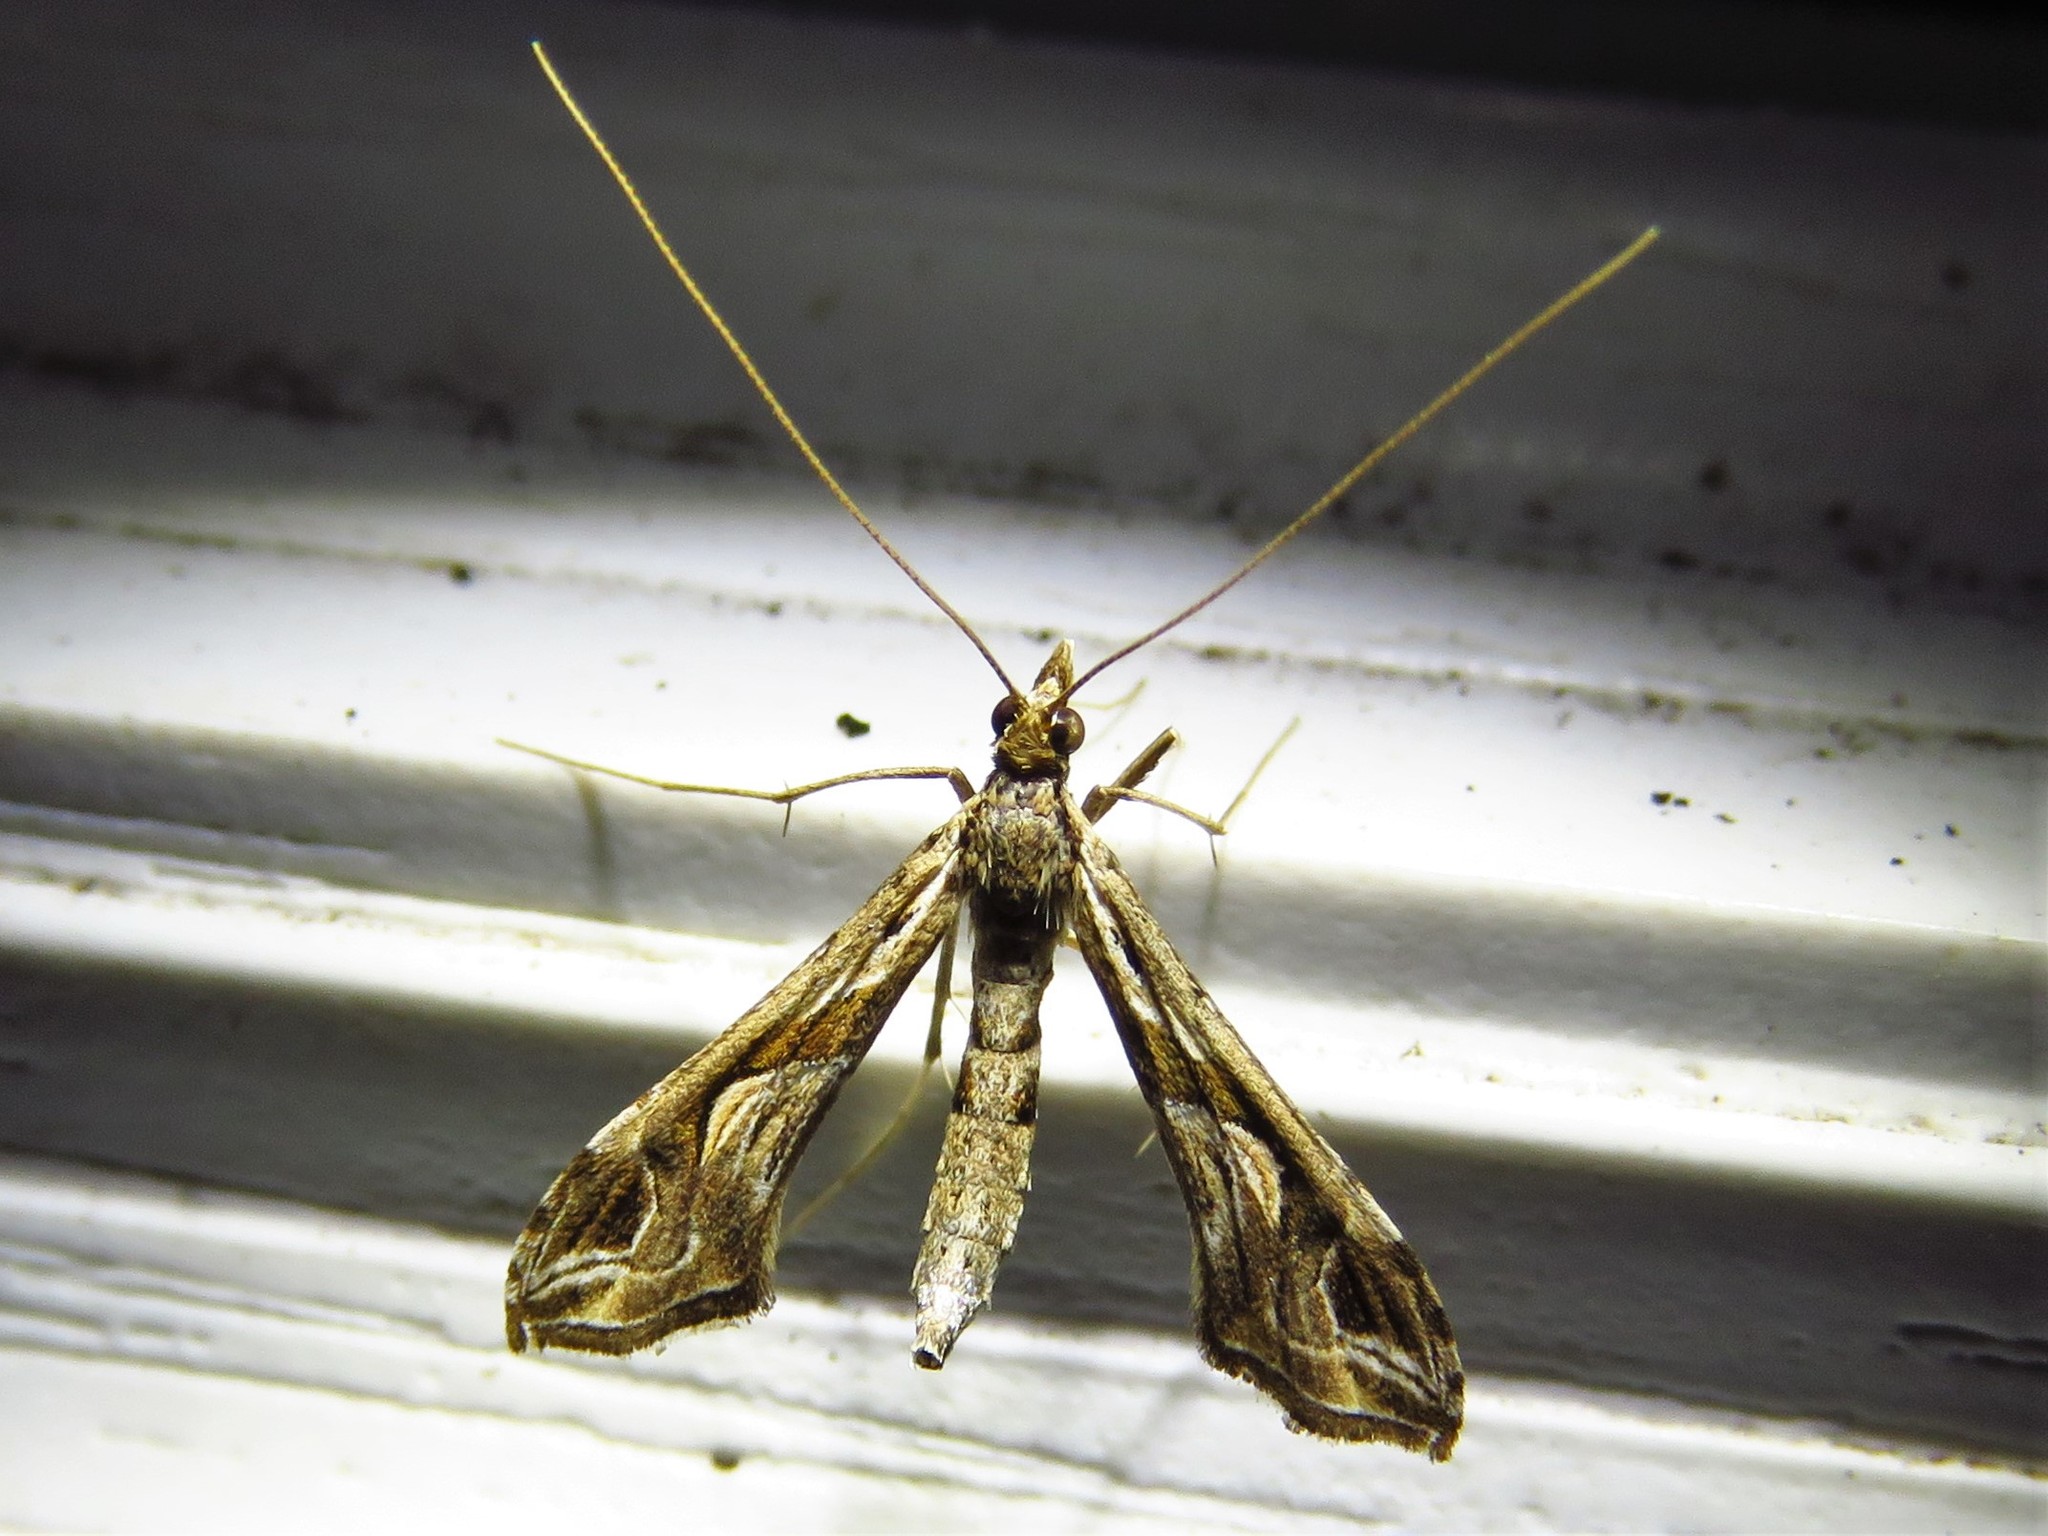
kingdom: Animalia
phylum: Arthropoda
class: Insecta
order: Lepidoptera
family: Crambidae
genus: Lineodes
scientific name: Lineodes integra
